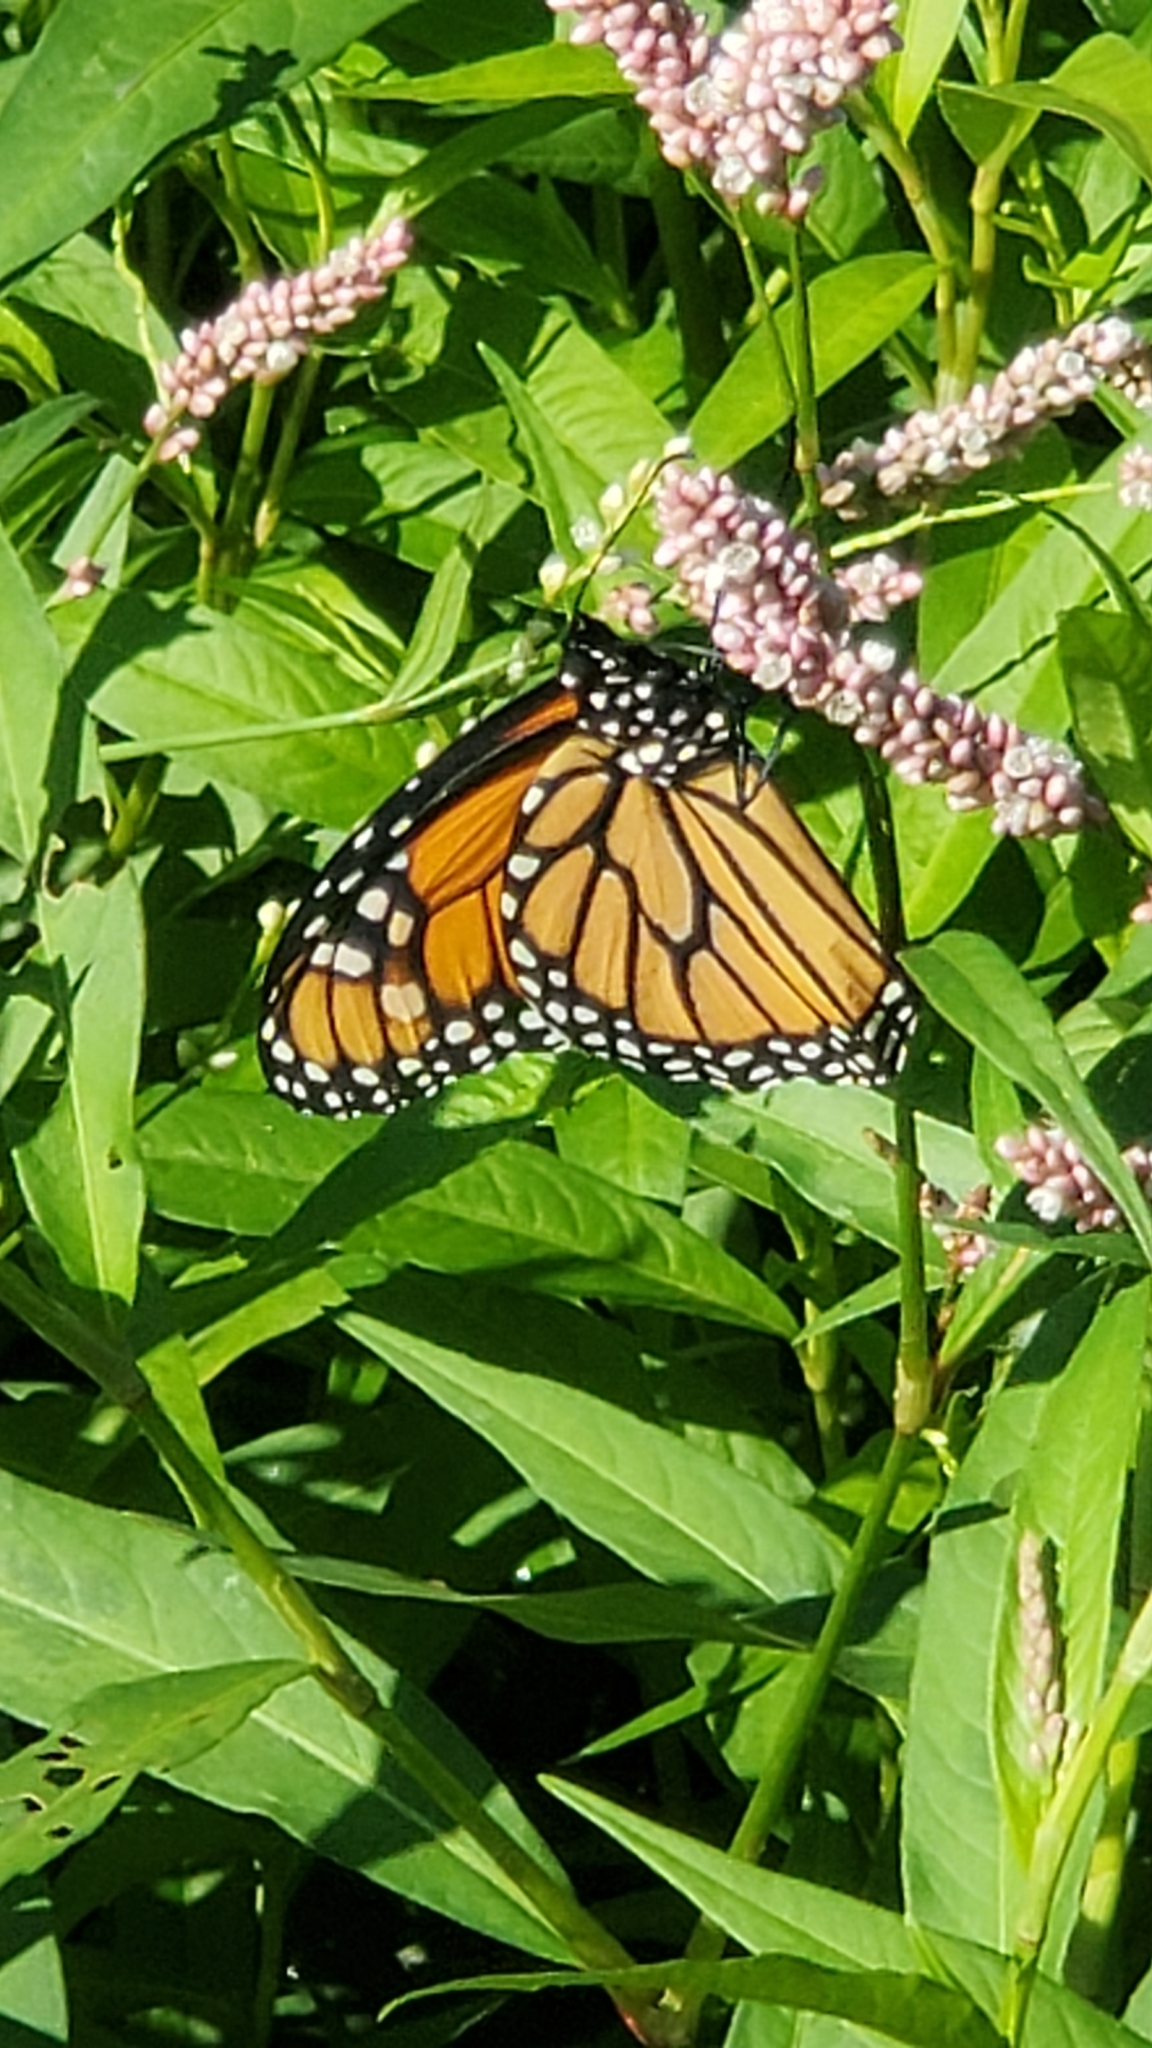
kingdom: Animalia
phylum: Arthropoda
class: Insecta
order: Lepidoptera
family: Nymphalidae
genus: Danaus
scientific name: Danaus plexippus
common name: Monarch
